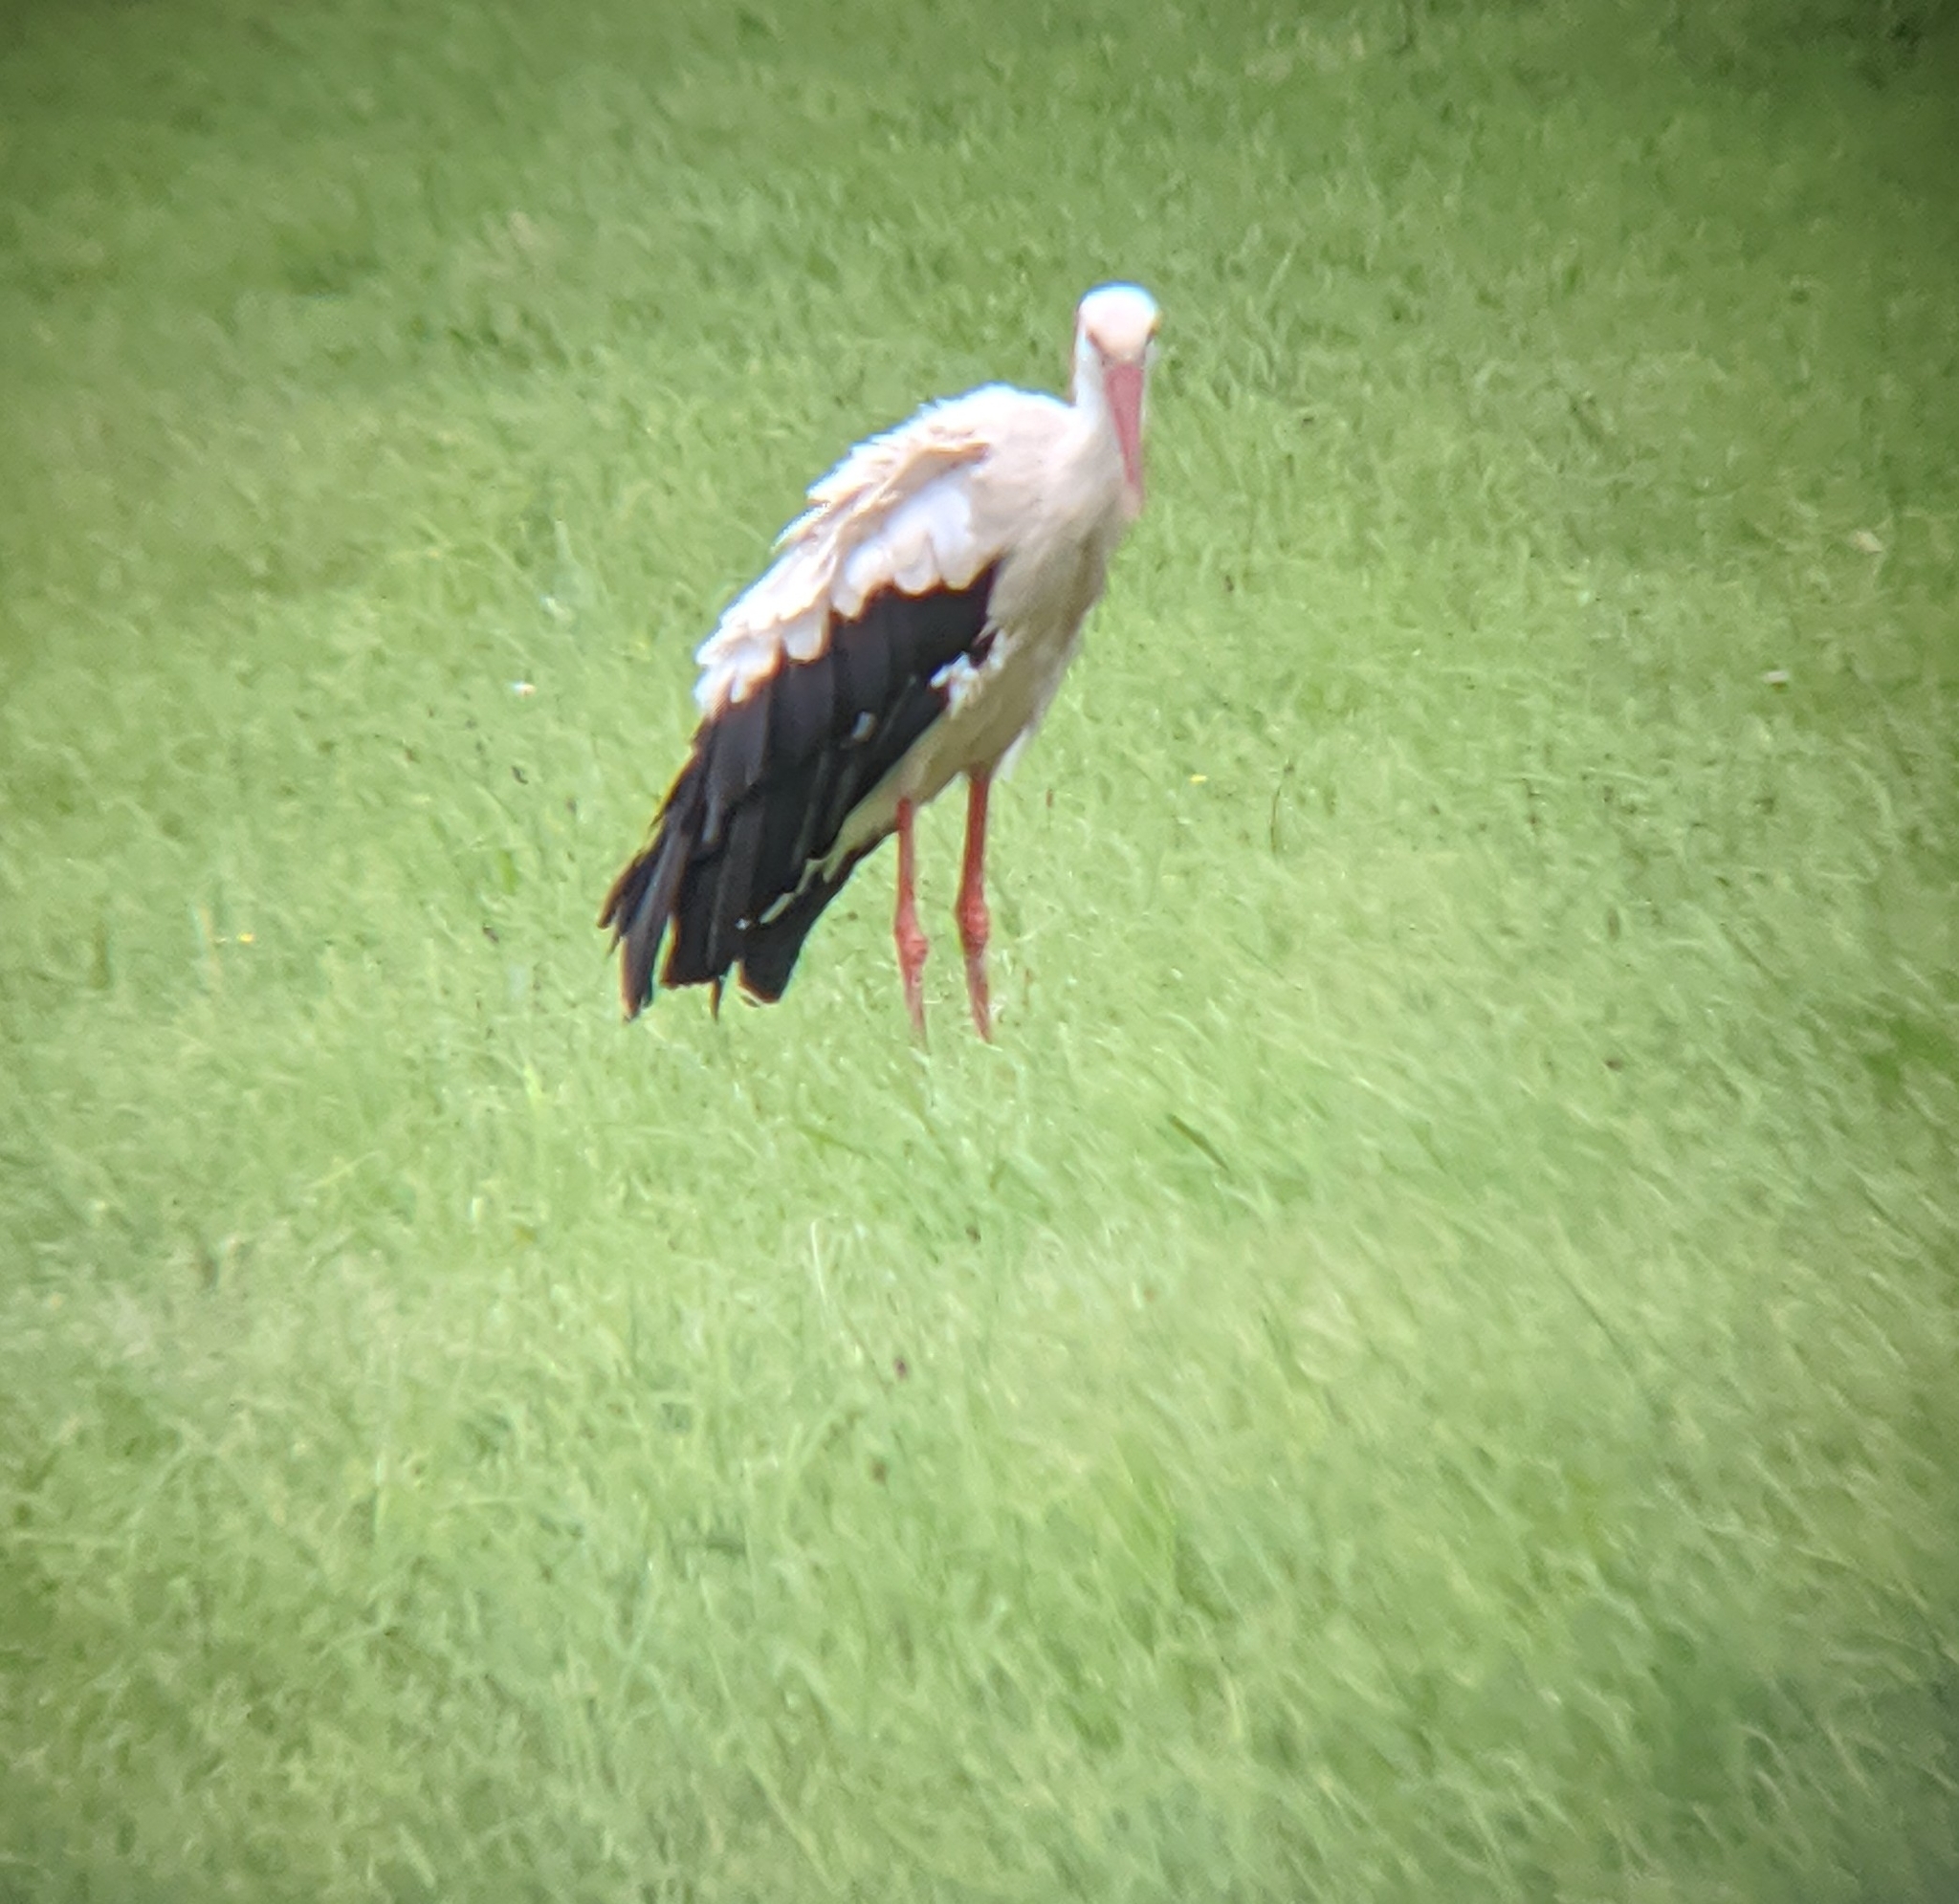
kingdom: Animalia
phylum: Chordata
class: Aves
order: Ciconiiformes
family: Ciconiidae
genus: Ciconia
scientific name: Ciconia ciconia
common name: White stork
